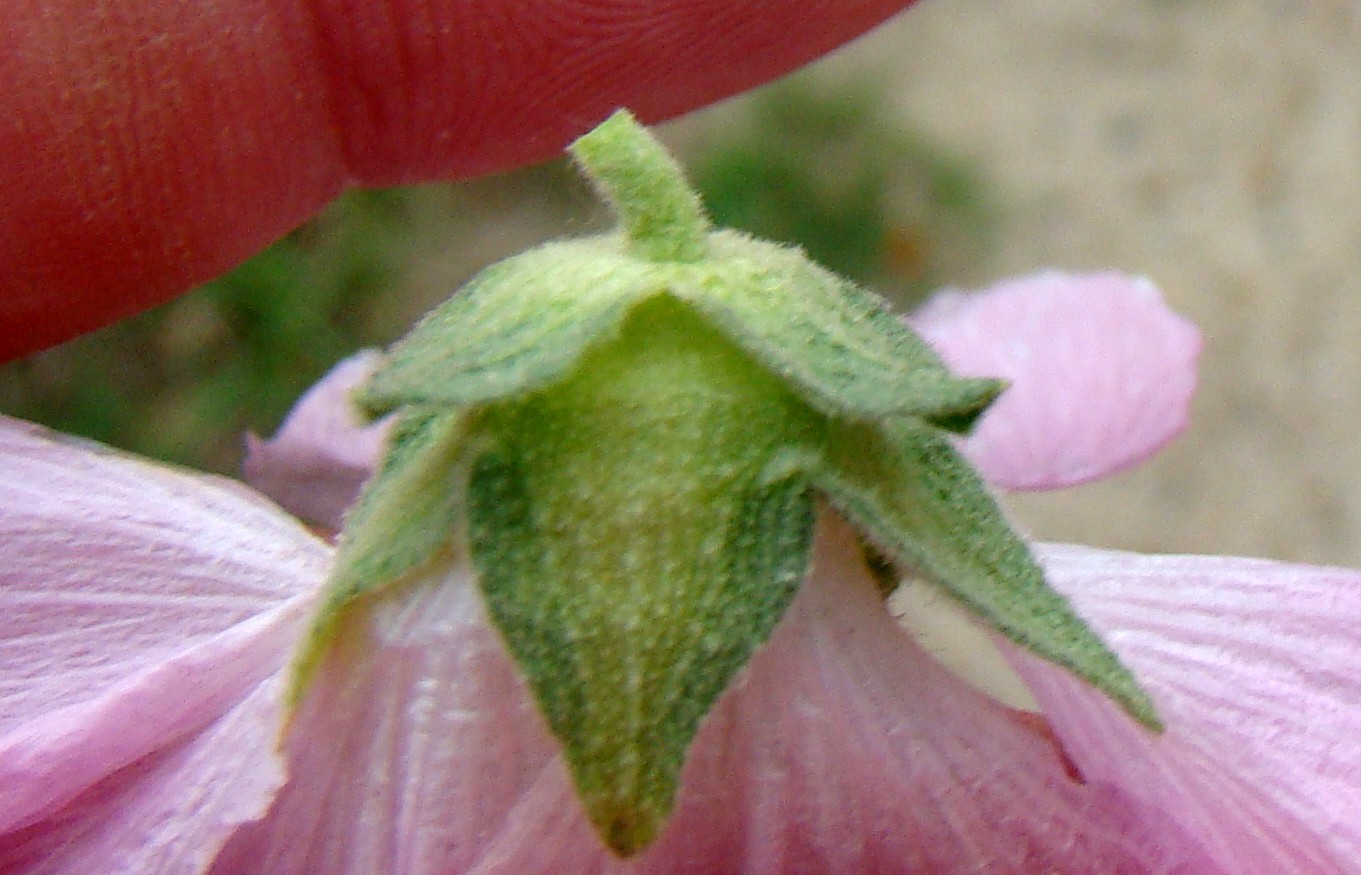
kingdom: Plantae
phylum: Tracheophyta
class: Magnoliopsida
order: Malvales
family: Malvaceae
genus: Malva
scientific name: Malva thuringiaca
